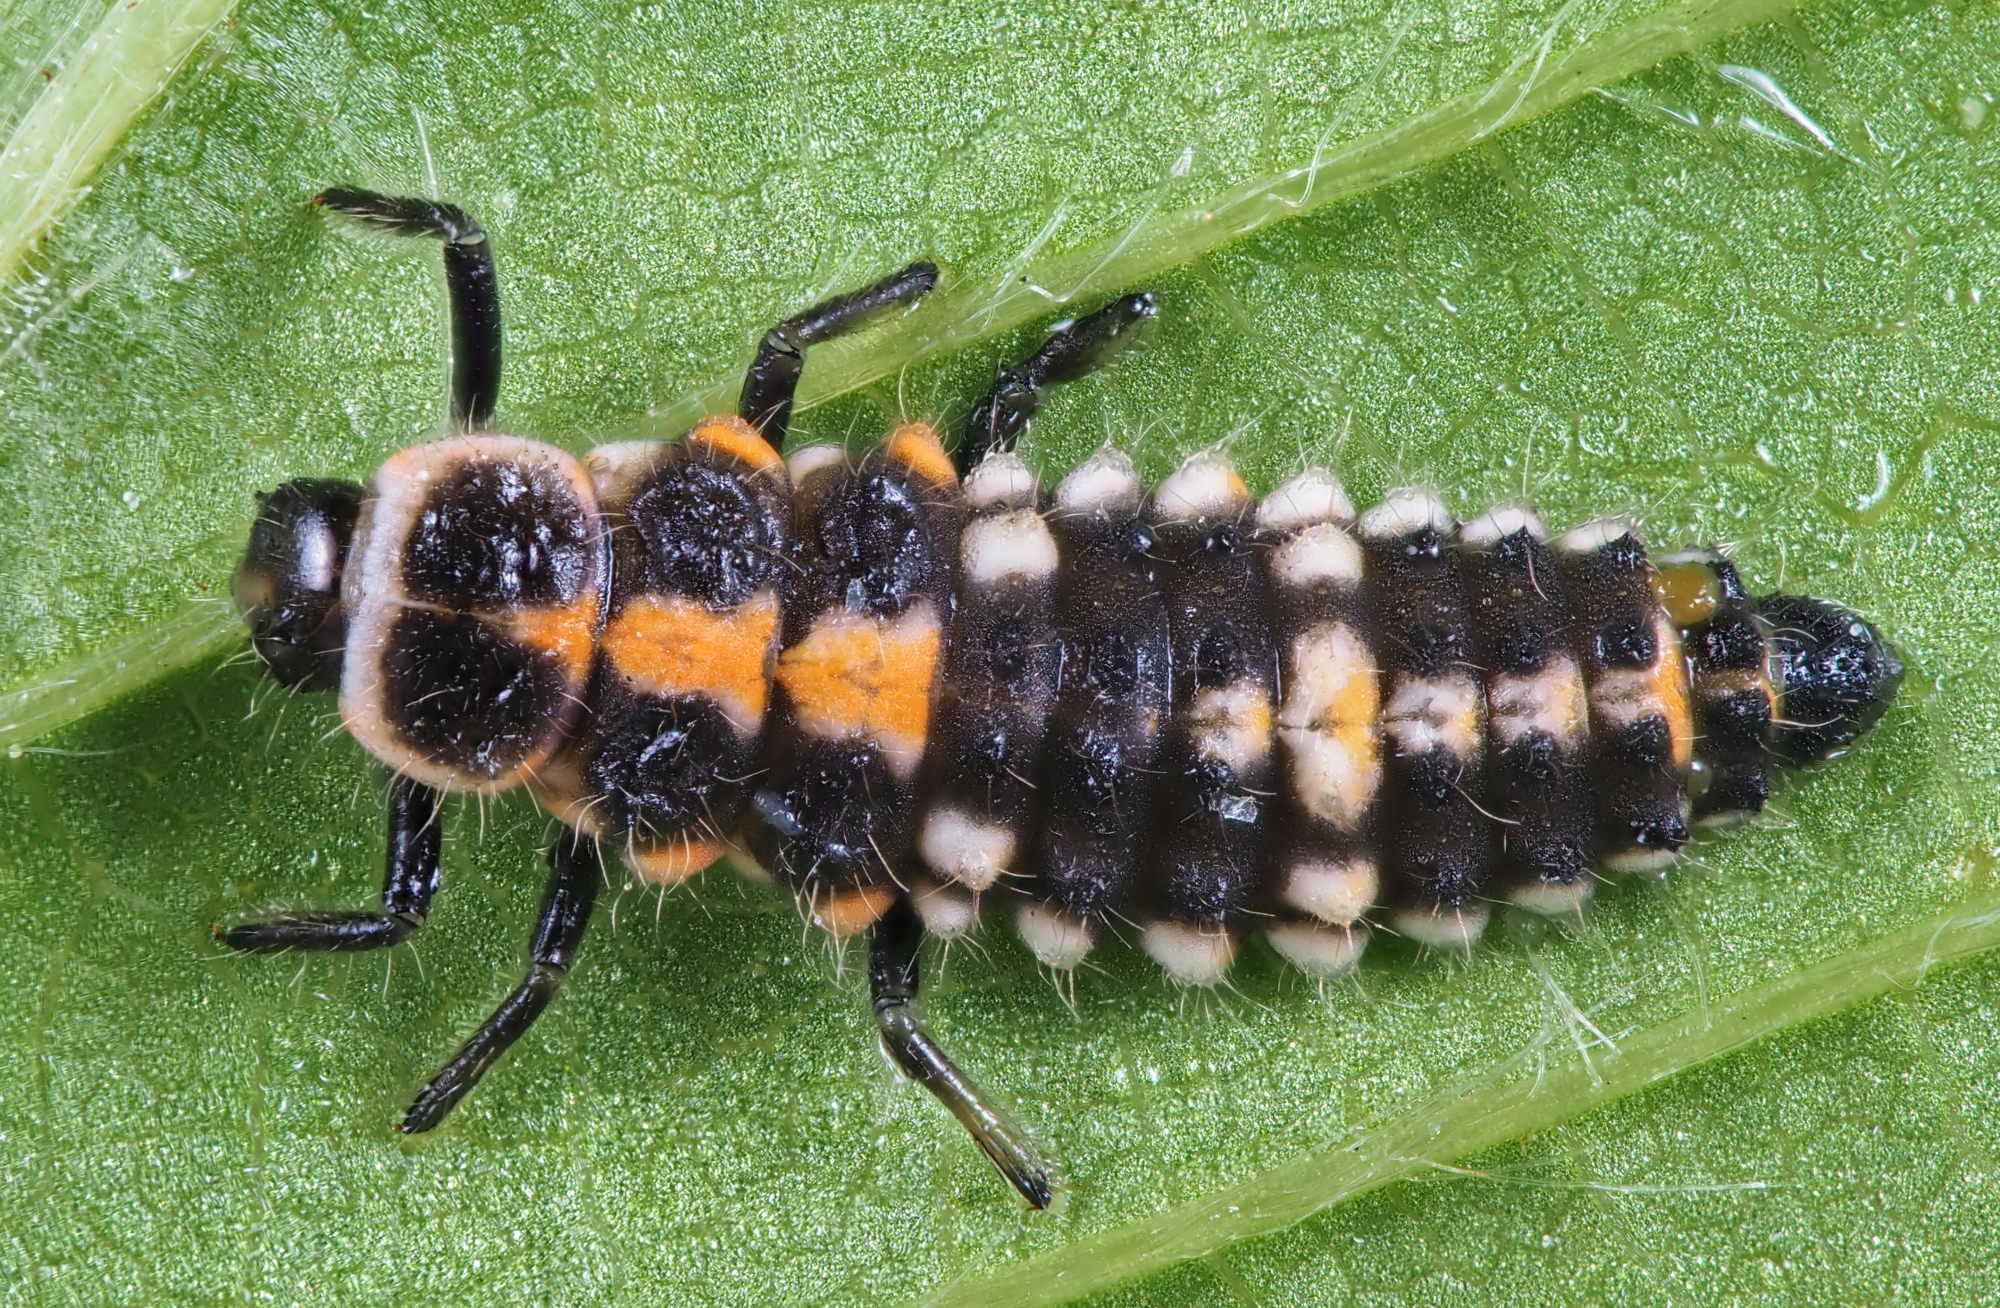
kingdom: Animalia
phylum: Arthropoda
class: Insecta
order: Coleoptera
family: Coccinellidae
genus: Oenopia
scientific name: Oenopia conglobata
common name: Ladybird beetle
